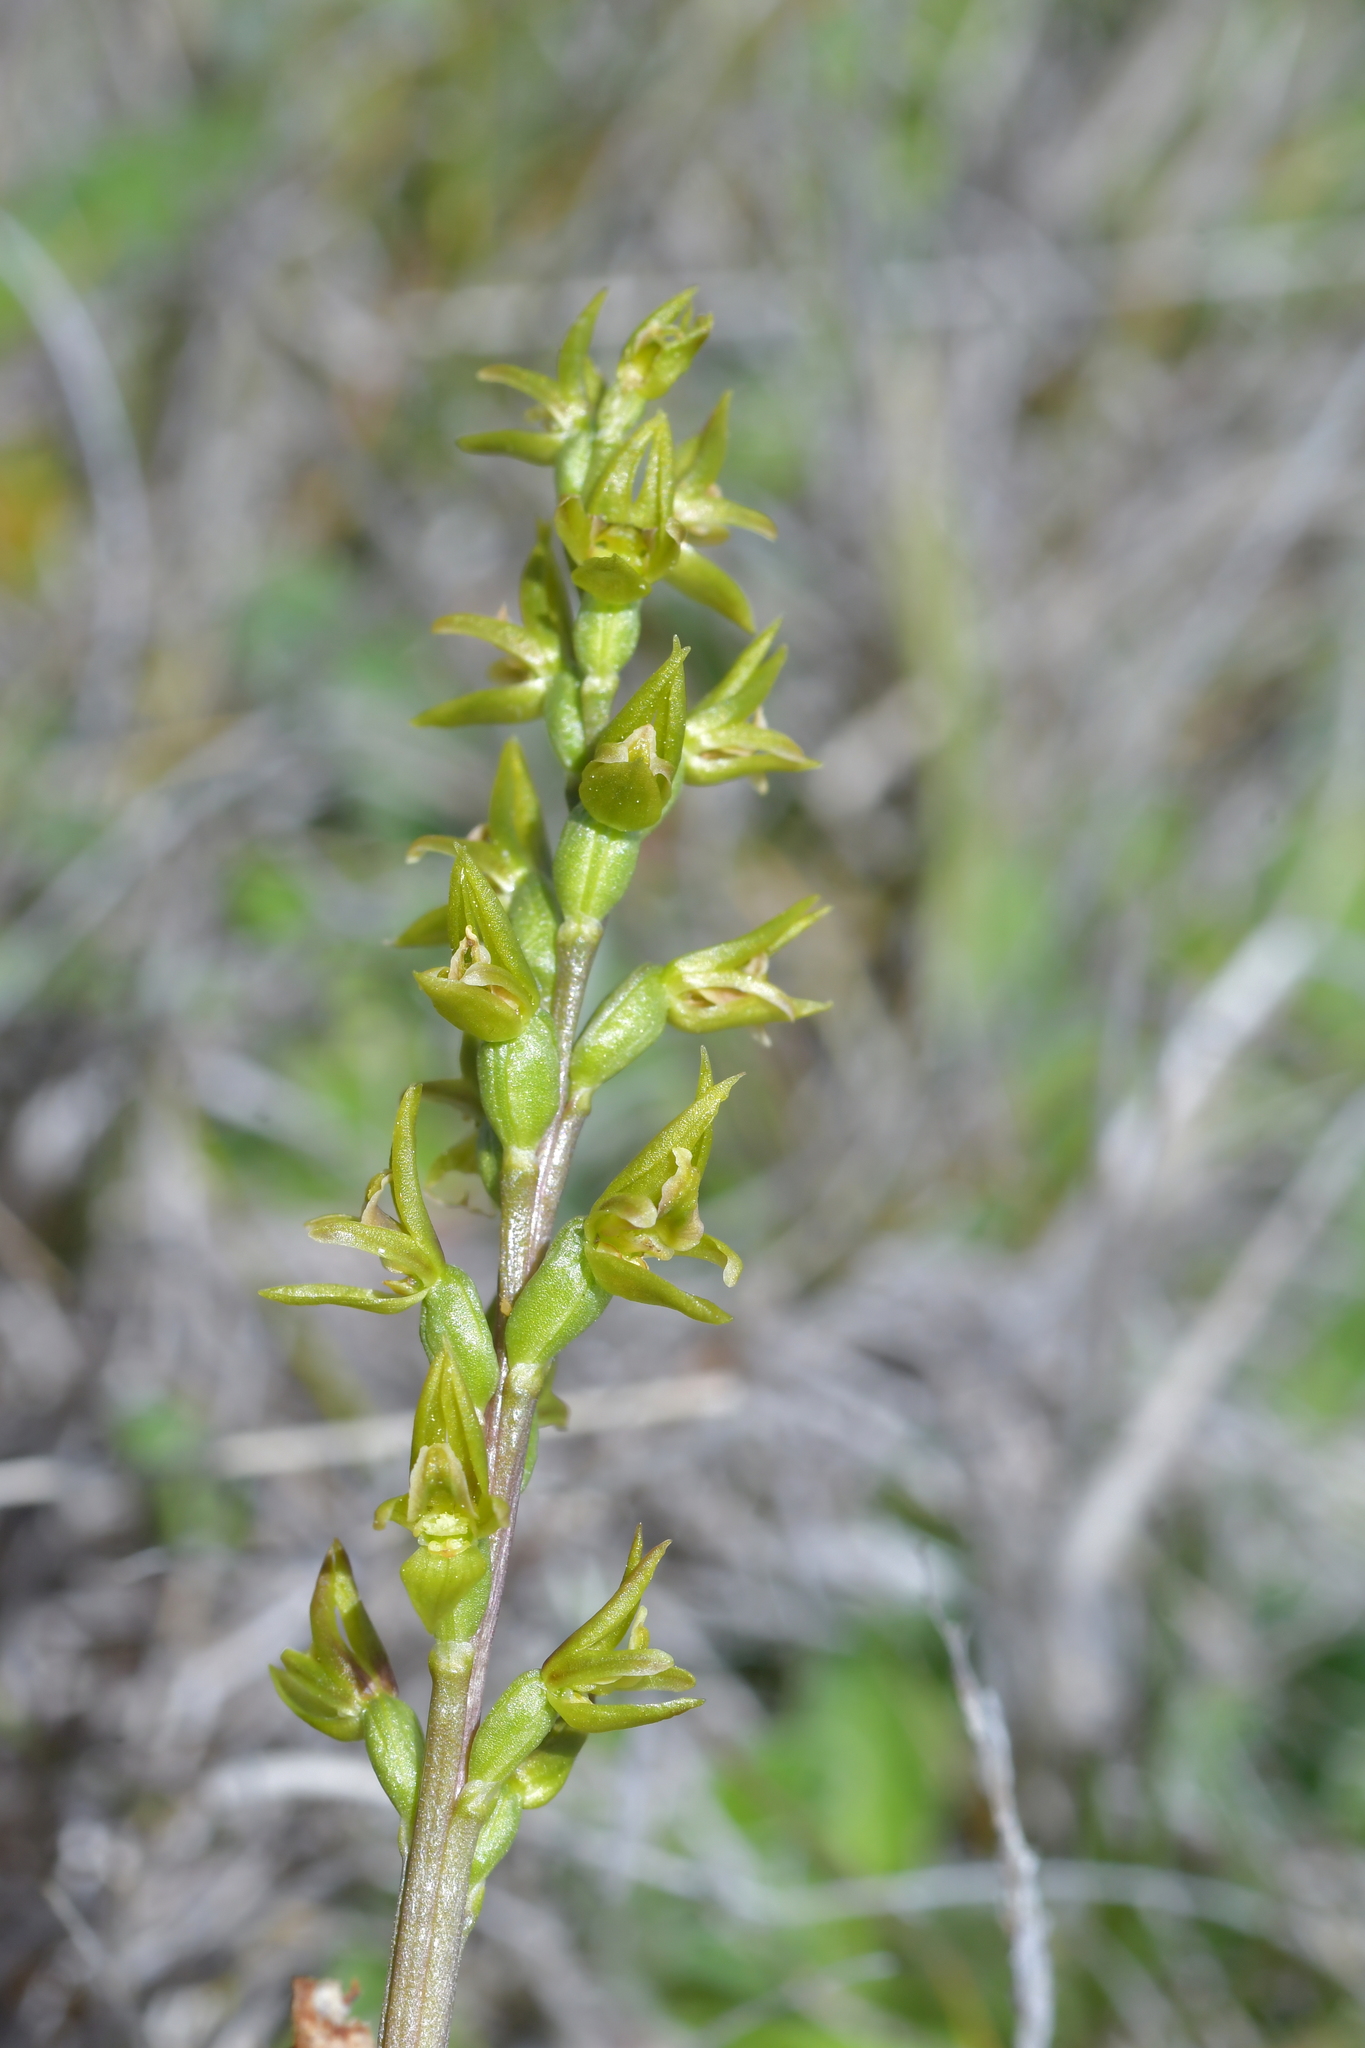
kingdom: Plantae
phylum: Tracheophyta
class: Liliopsida
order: Asparagales
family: Orchidaceae
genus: Prasophyllum
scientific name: Prasophyllum colensoi
